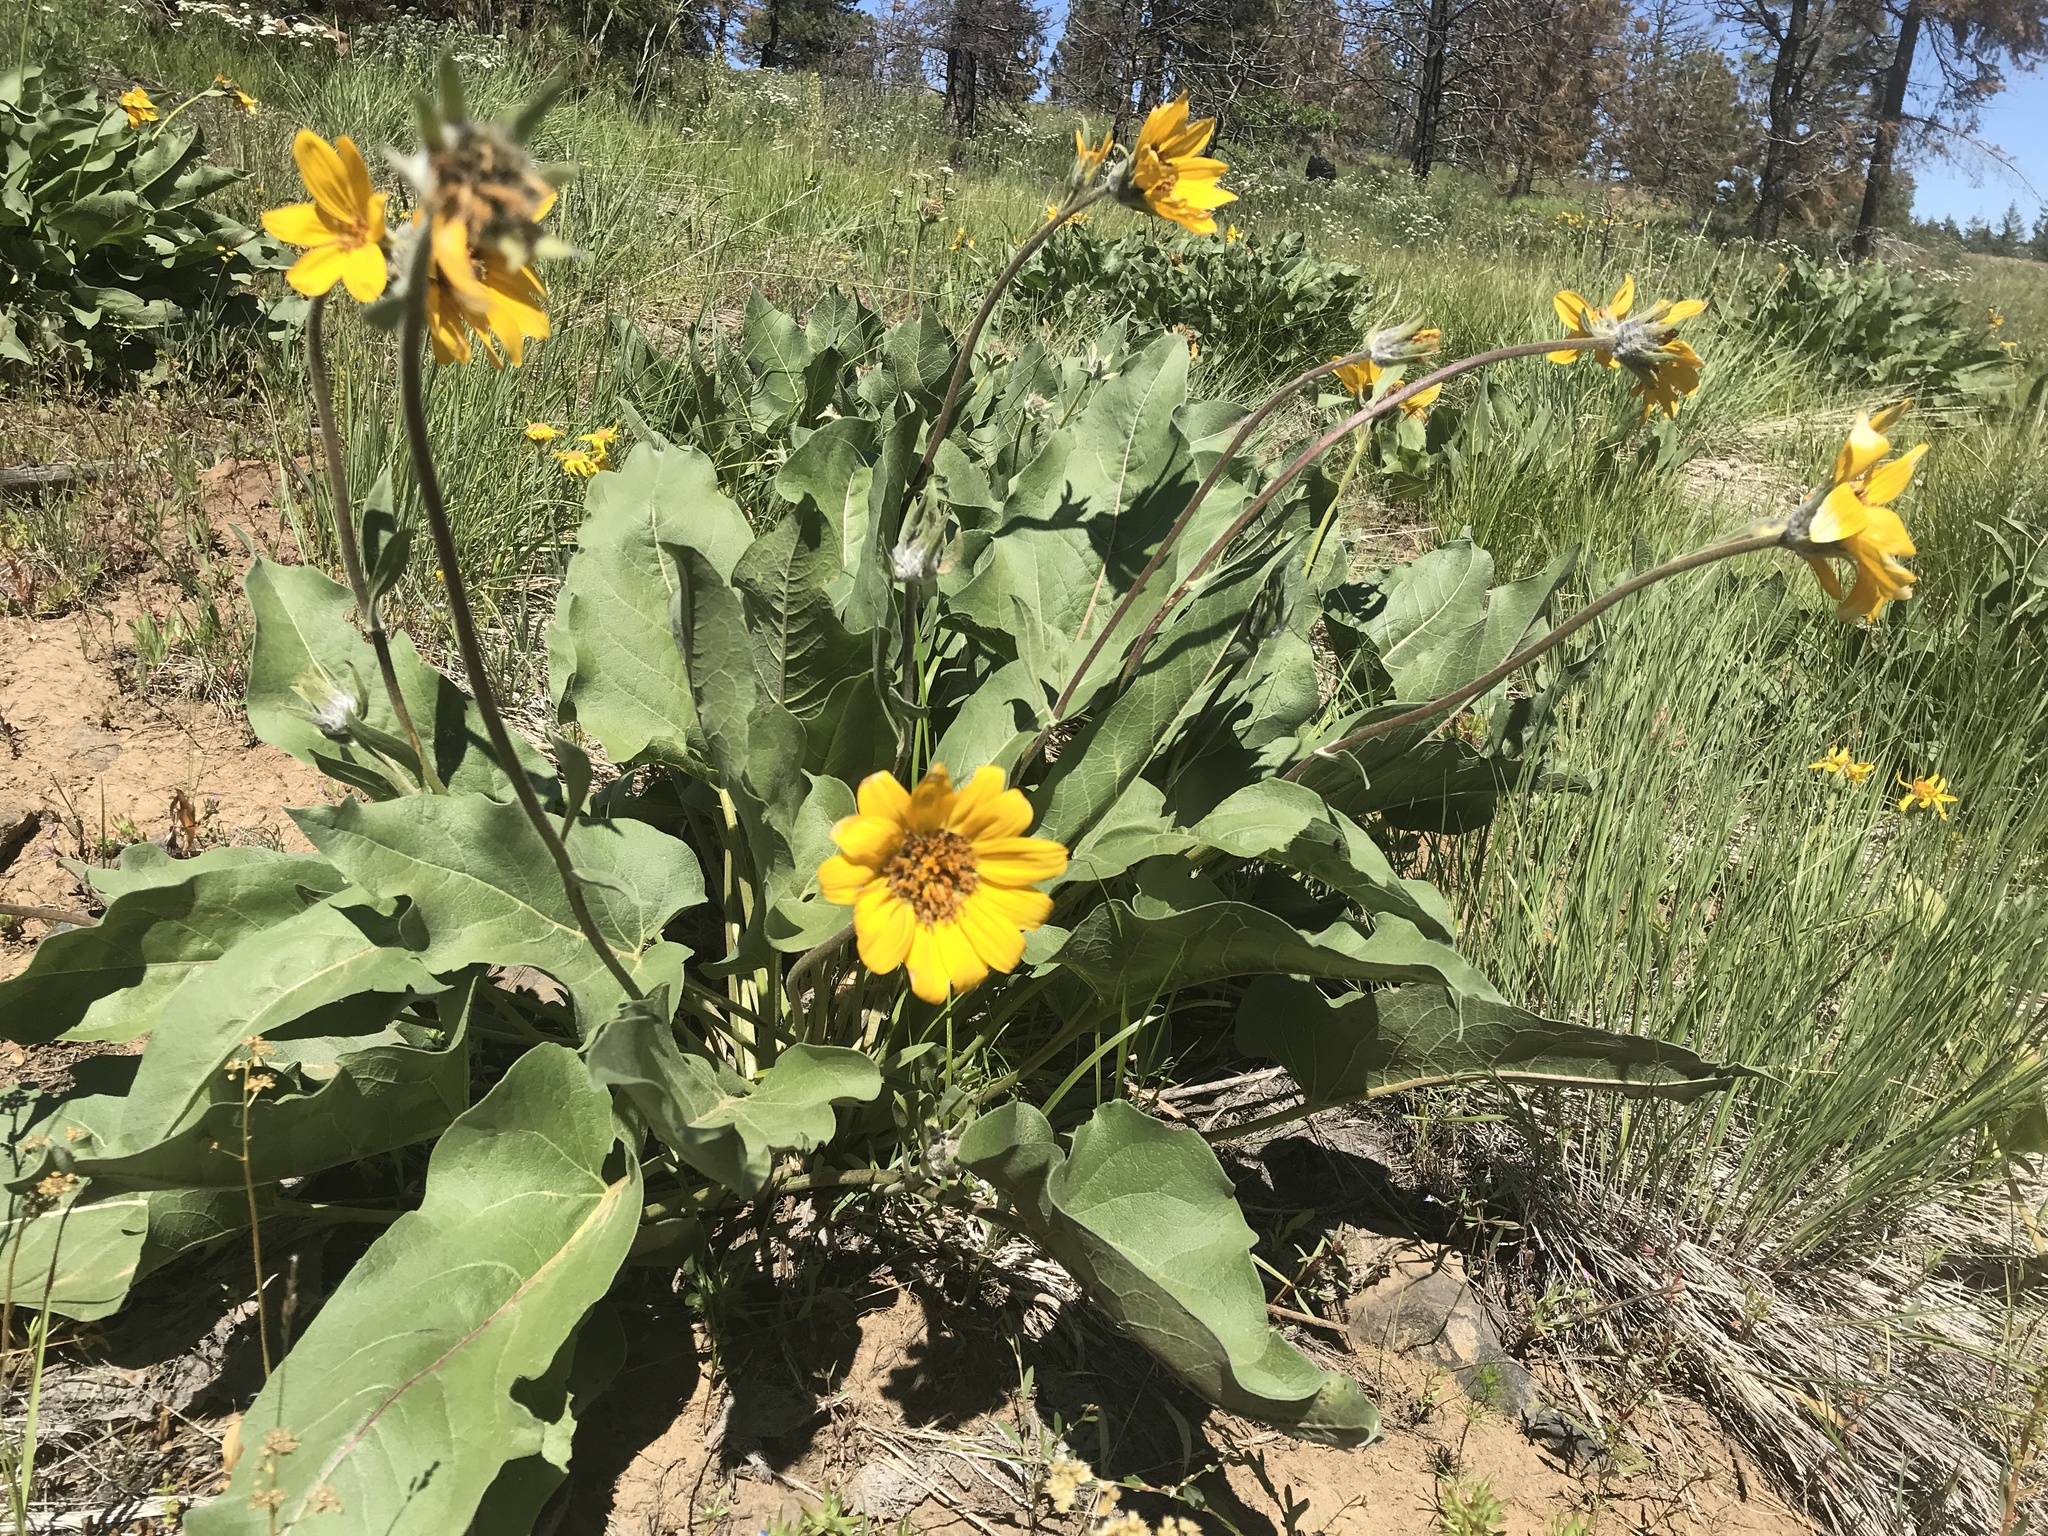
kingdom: Plantae
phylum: Tracheophyta
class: Magnoliopsida
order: Asterales
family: Asteraceae
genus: Wyethia
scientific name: Wyethia sagittata
